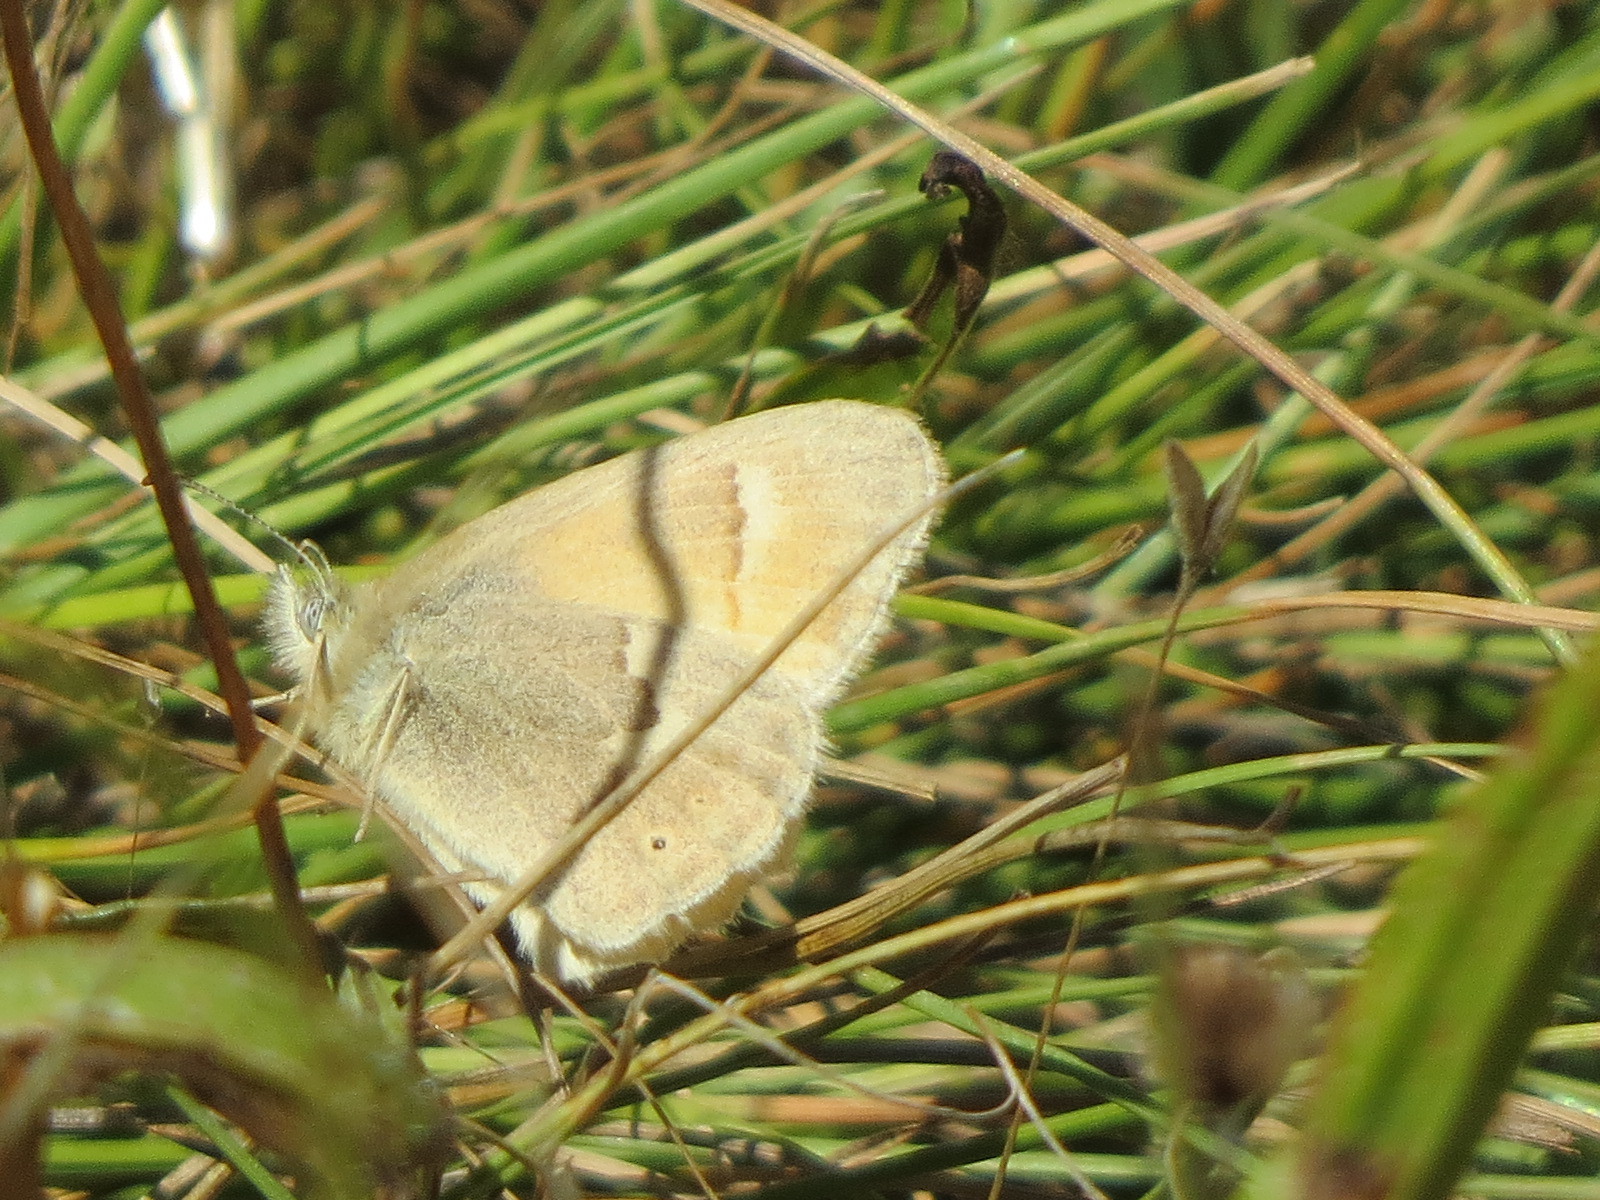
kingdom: Animalia
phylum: Arthropoda
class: Insecta
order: Lepidoptera
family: Nymphalidae
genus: Coenonympha
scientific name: Coenonympha california
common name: Common ringlet
